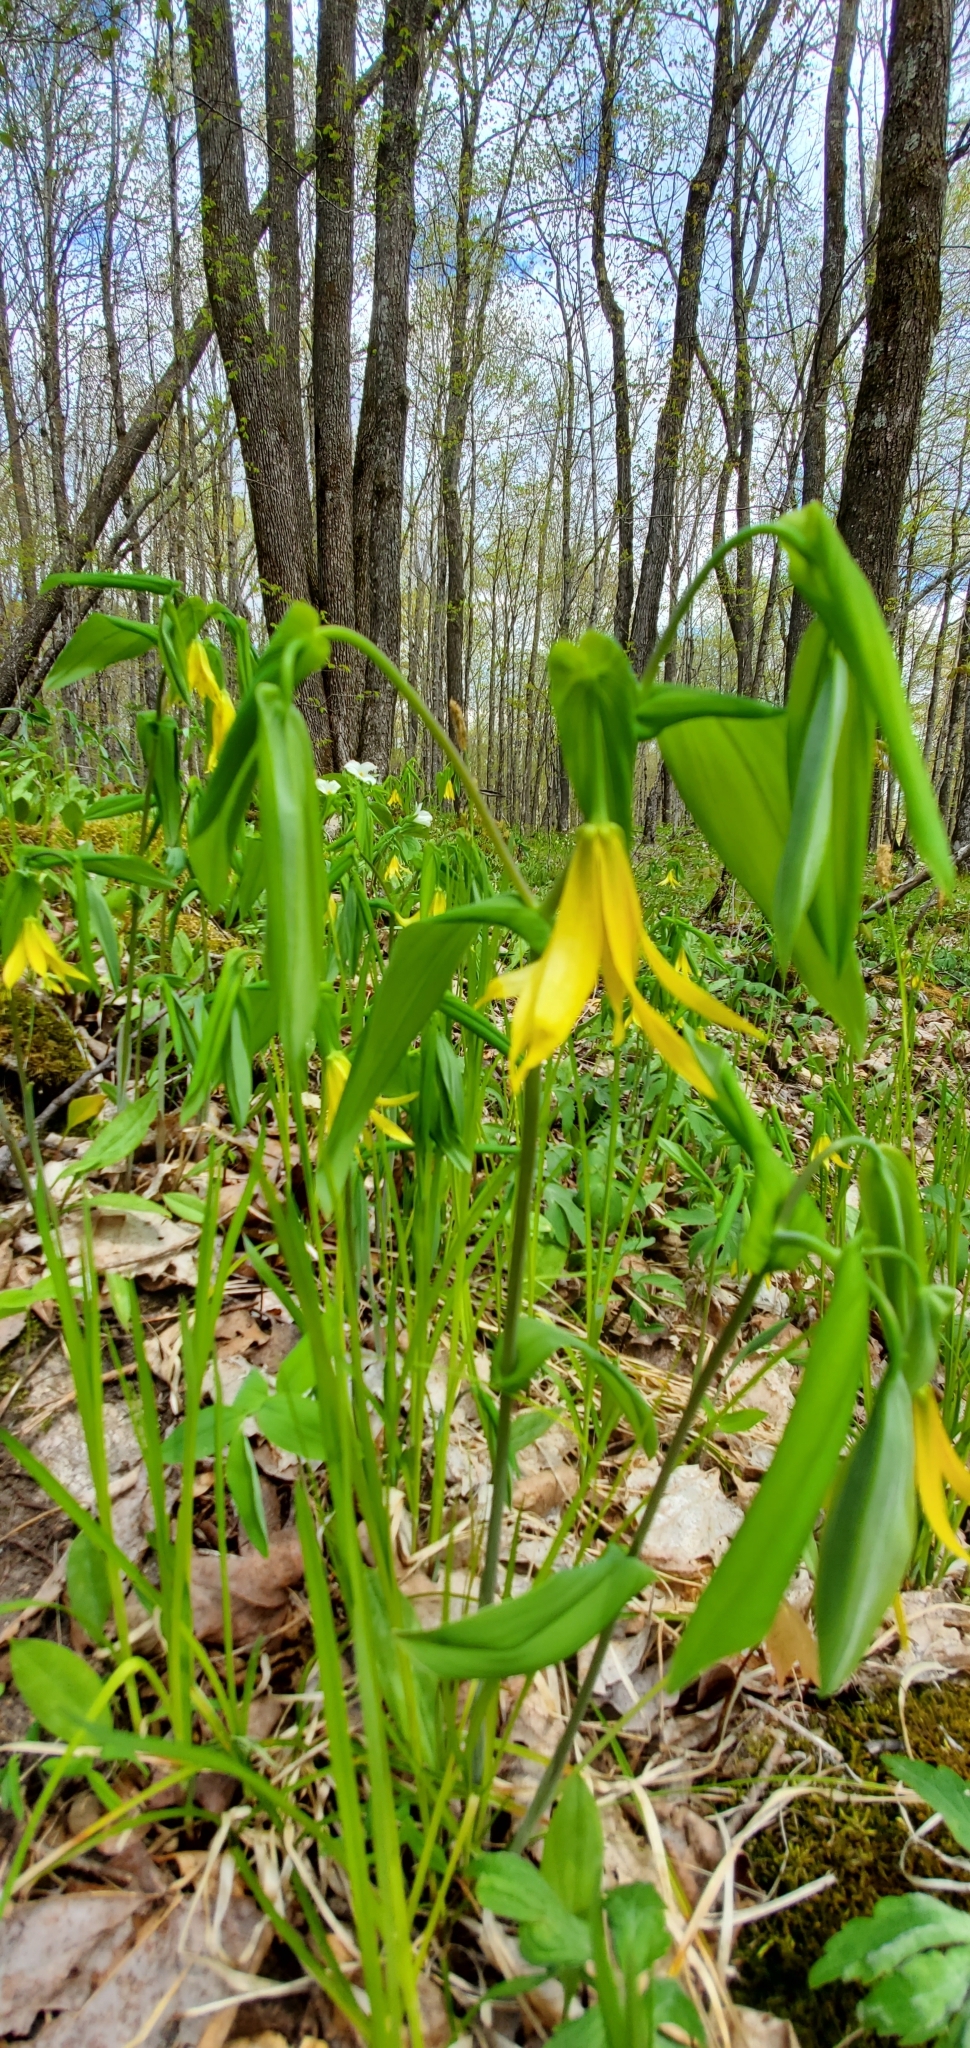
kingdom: Plantae
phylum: Tracheophyta
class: Liliopsida
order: Liliales
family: Colchicaceae
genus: Uvularia
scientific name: Uvularia grandiflora
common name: Bellwort
